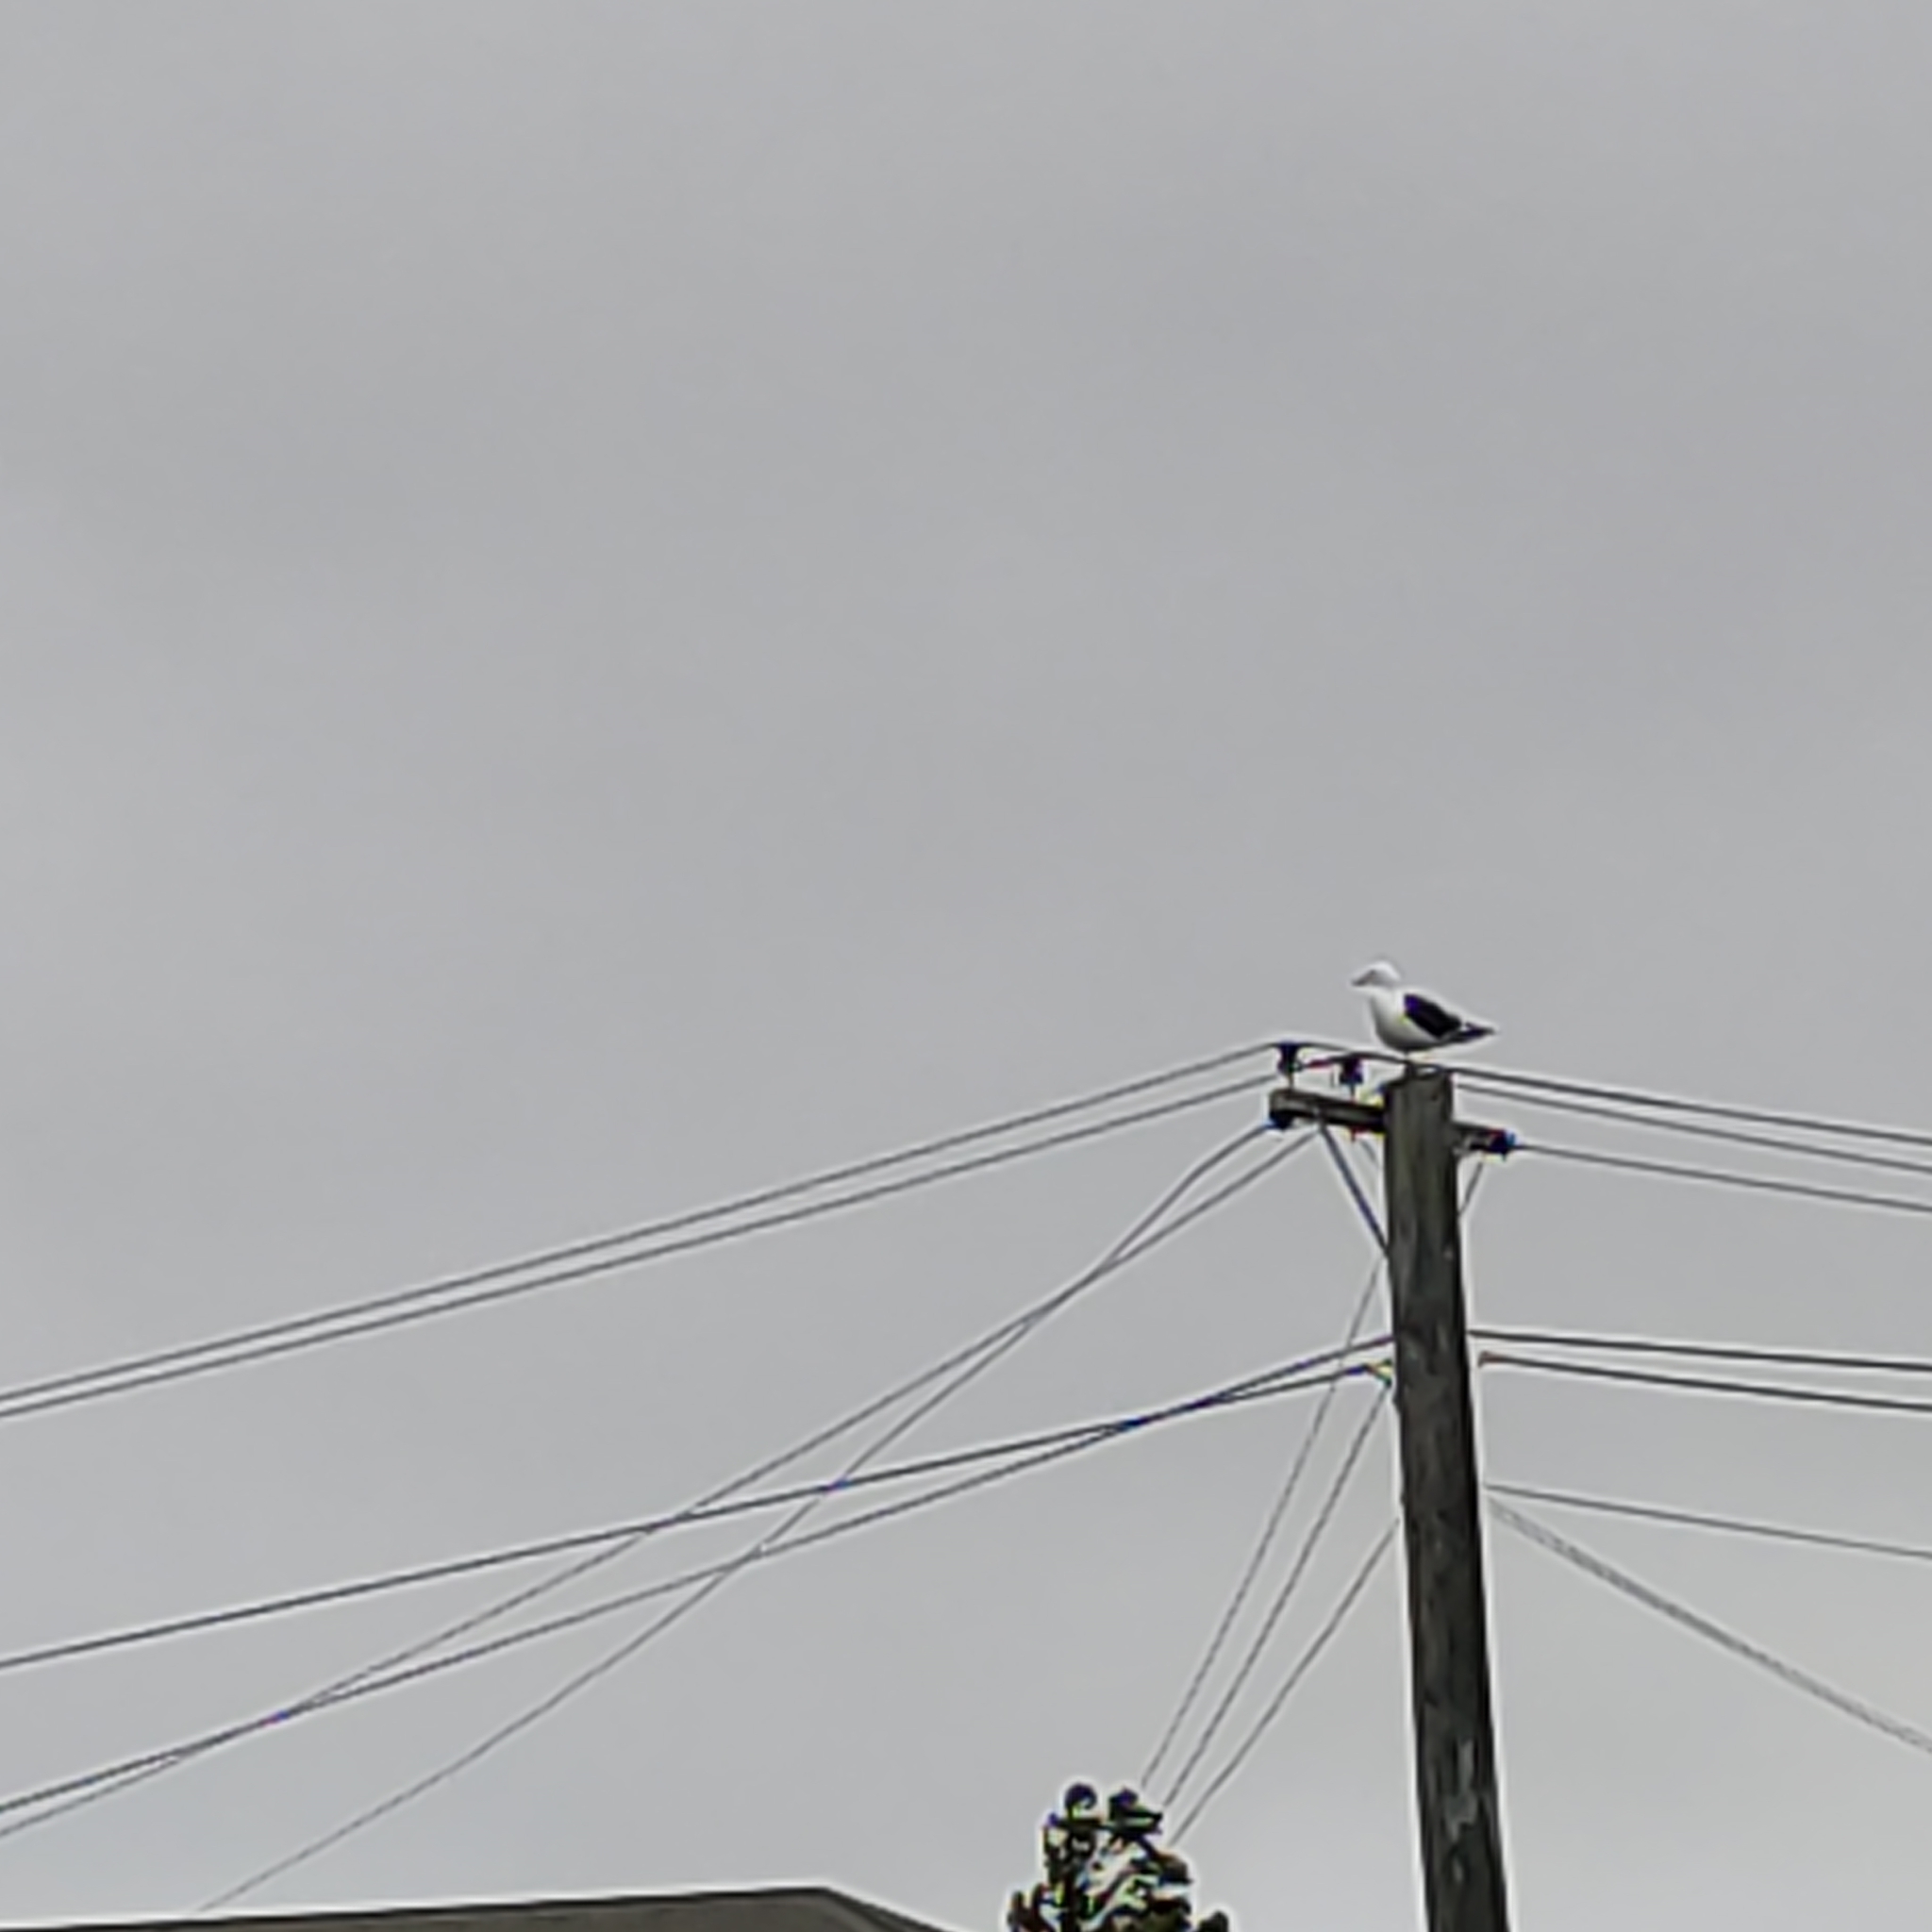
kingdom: Animalia
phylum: Chordata
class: Aves
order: Charadriiformes
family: Laridae
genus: Larus
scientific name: Larus dominicanus
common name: Kelp gull
